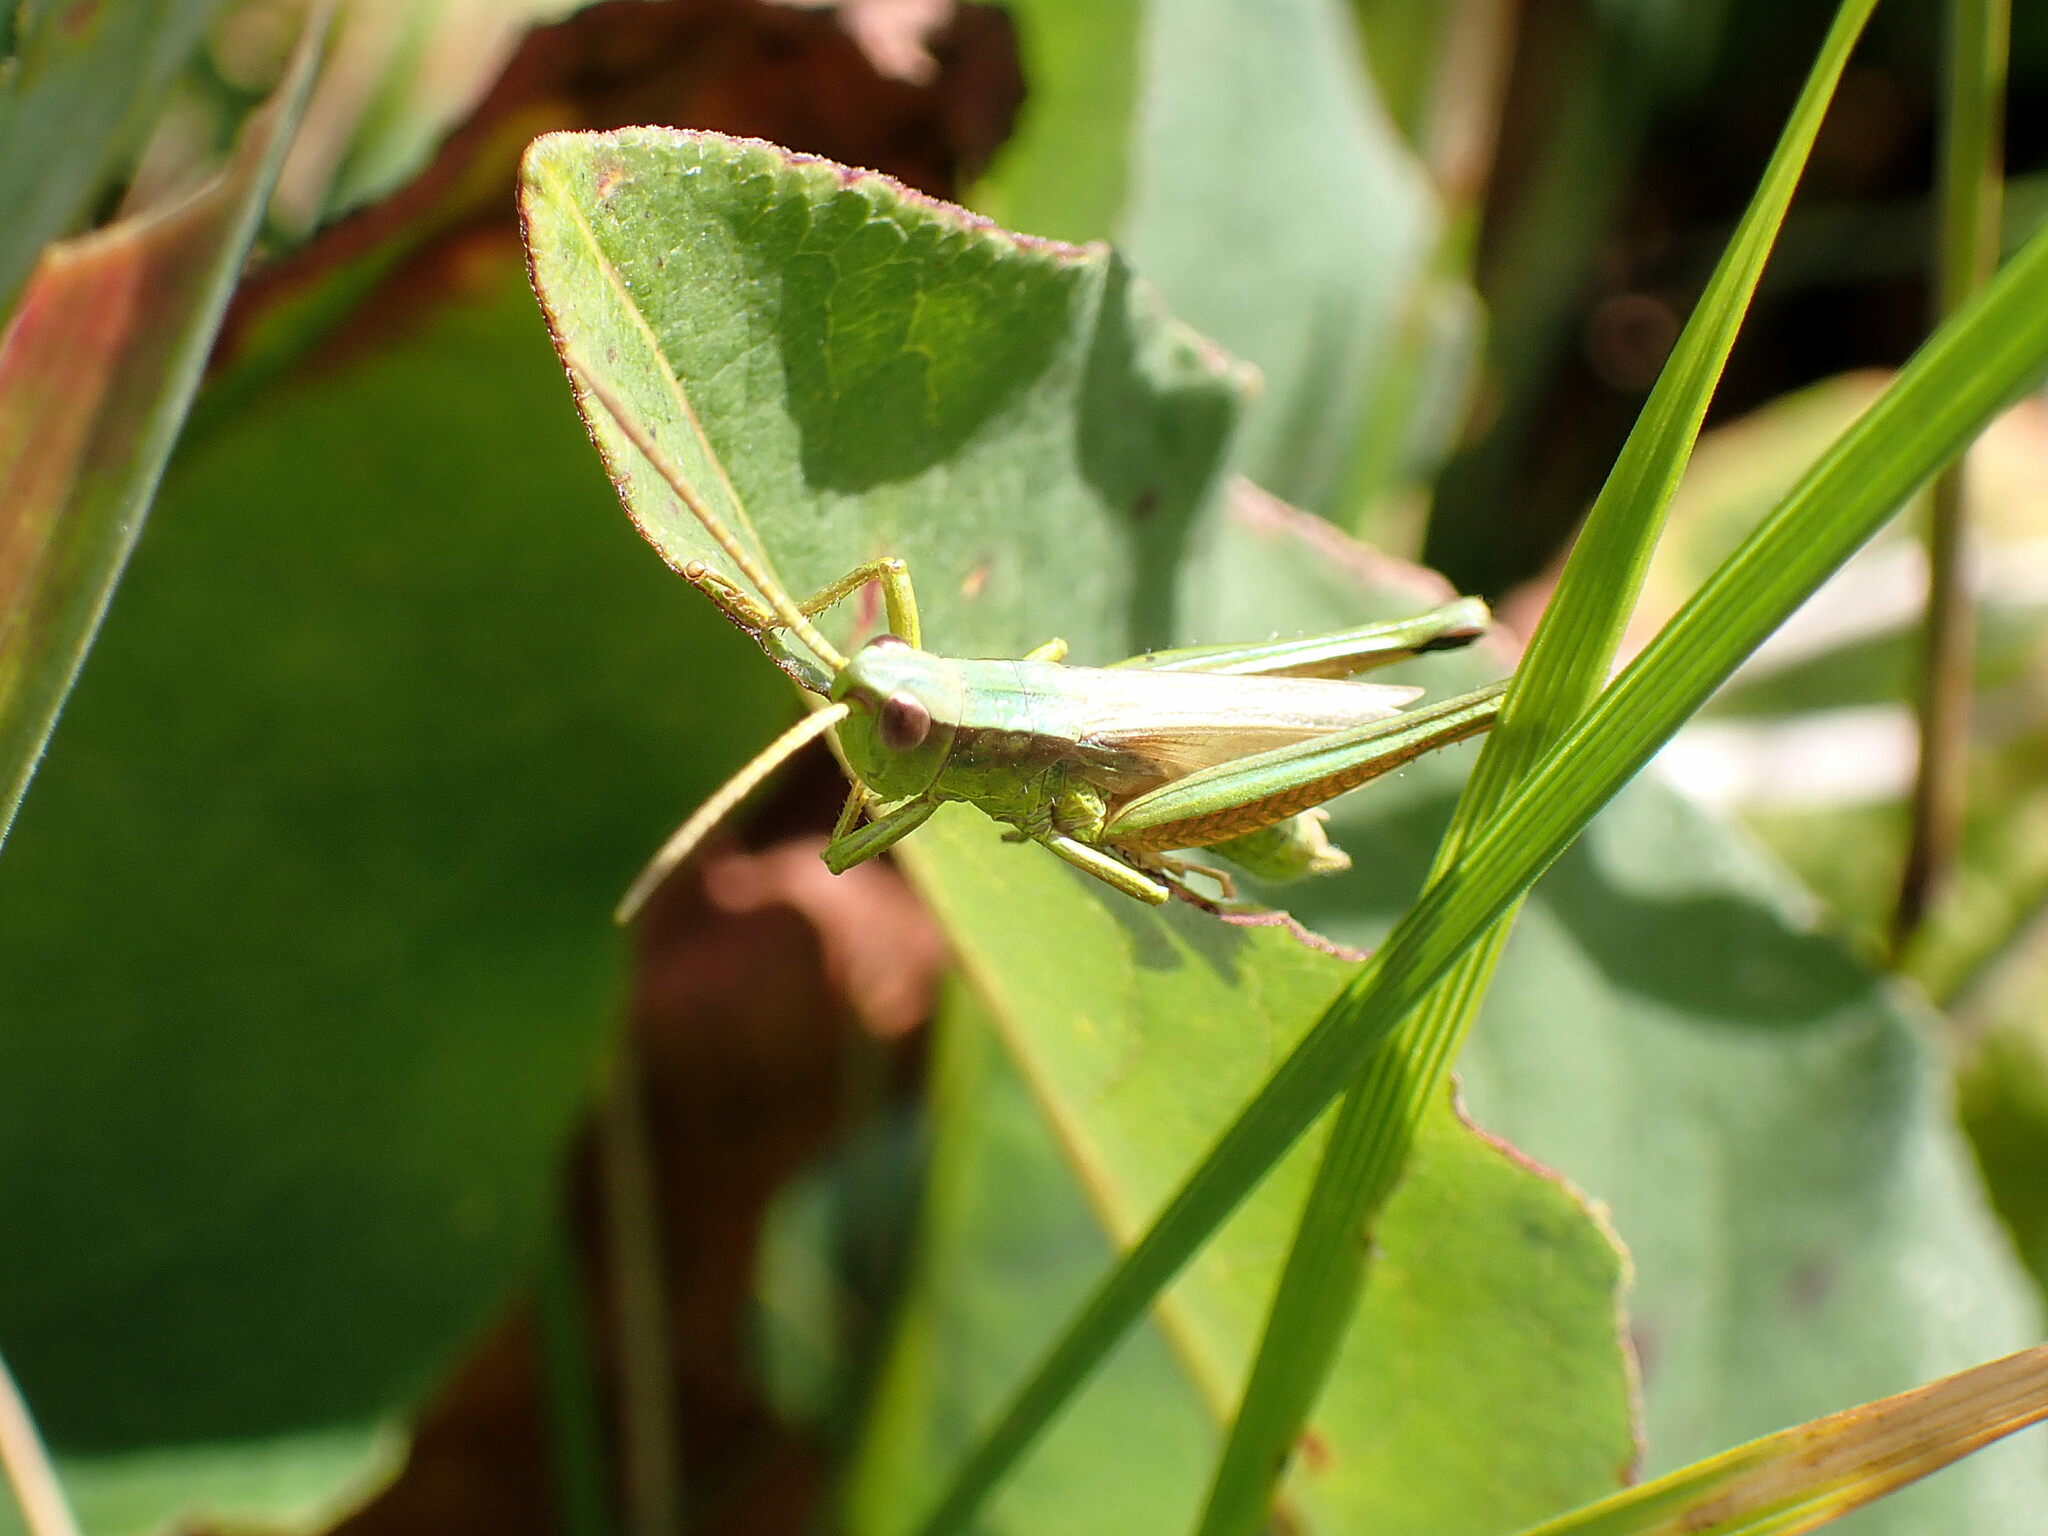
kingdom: Animalia
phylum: Arthropoda
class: Insecta
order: Orthoptera
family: Acrididae
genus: Chrysochraon
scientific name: Chrysochraon dispar
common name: Large gold grasshopper
